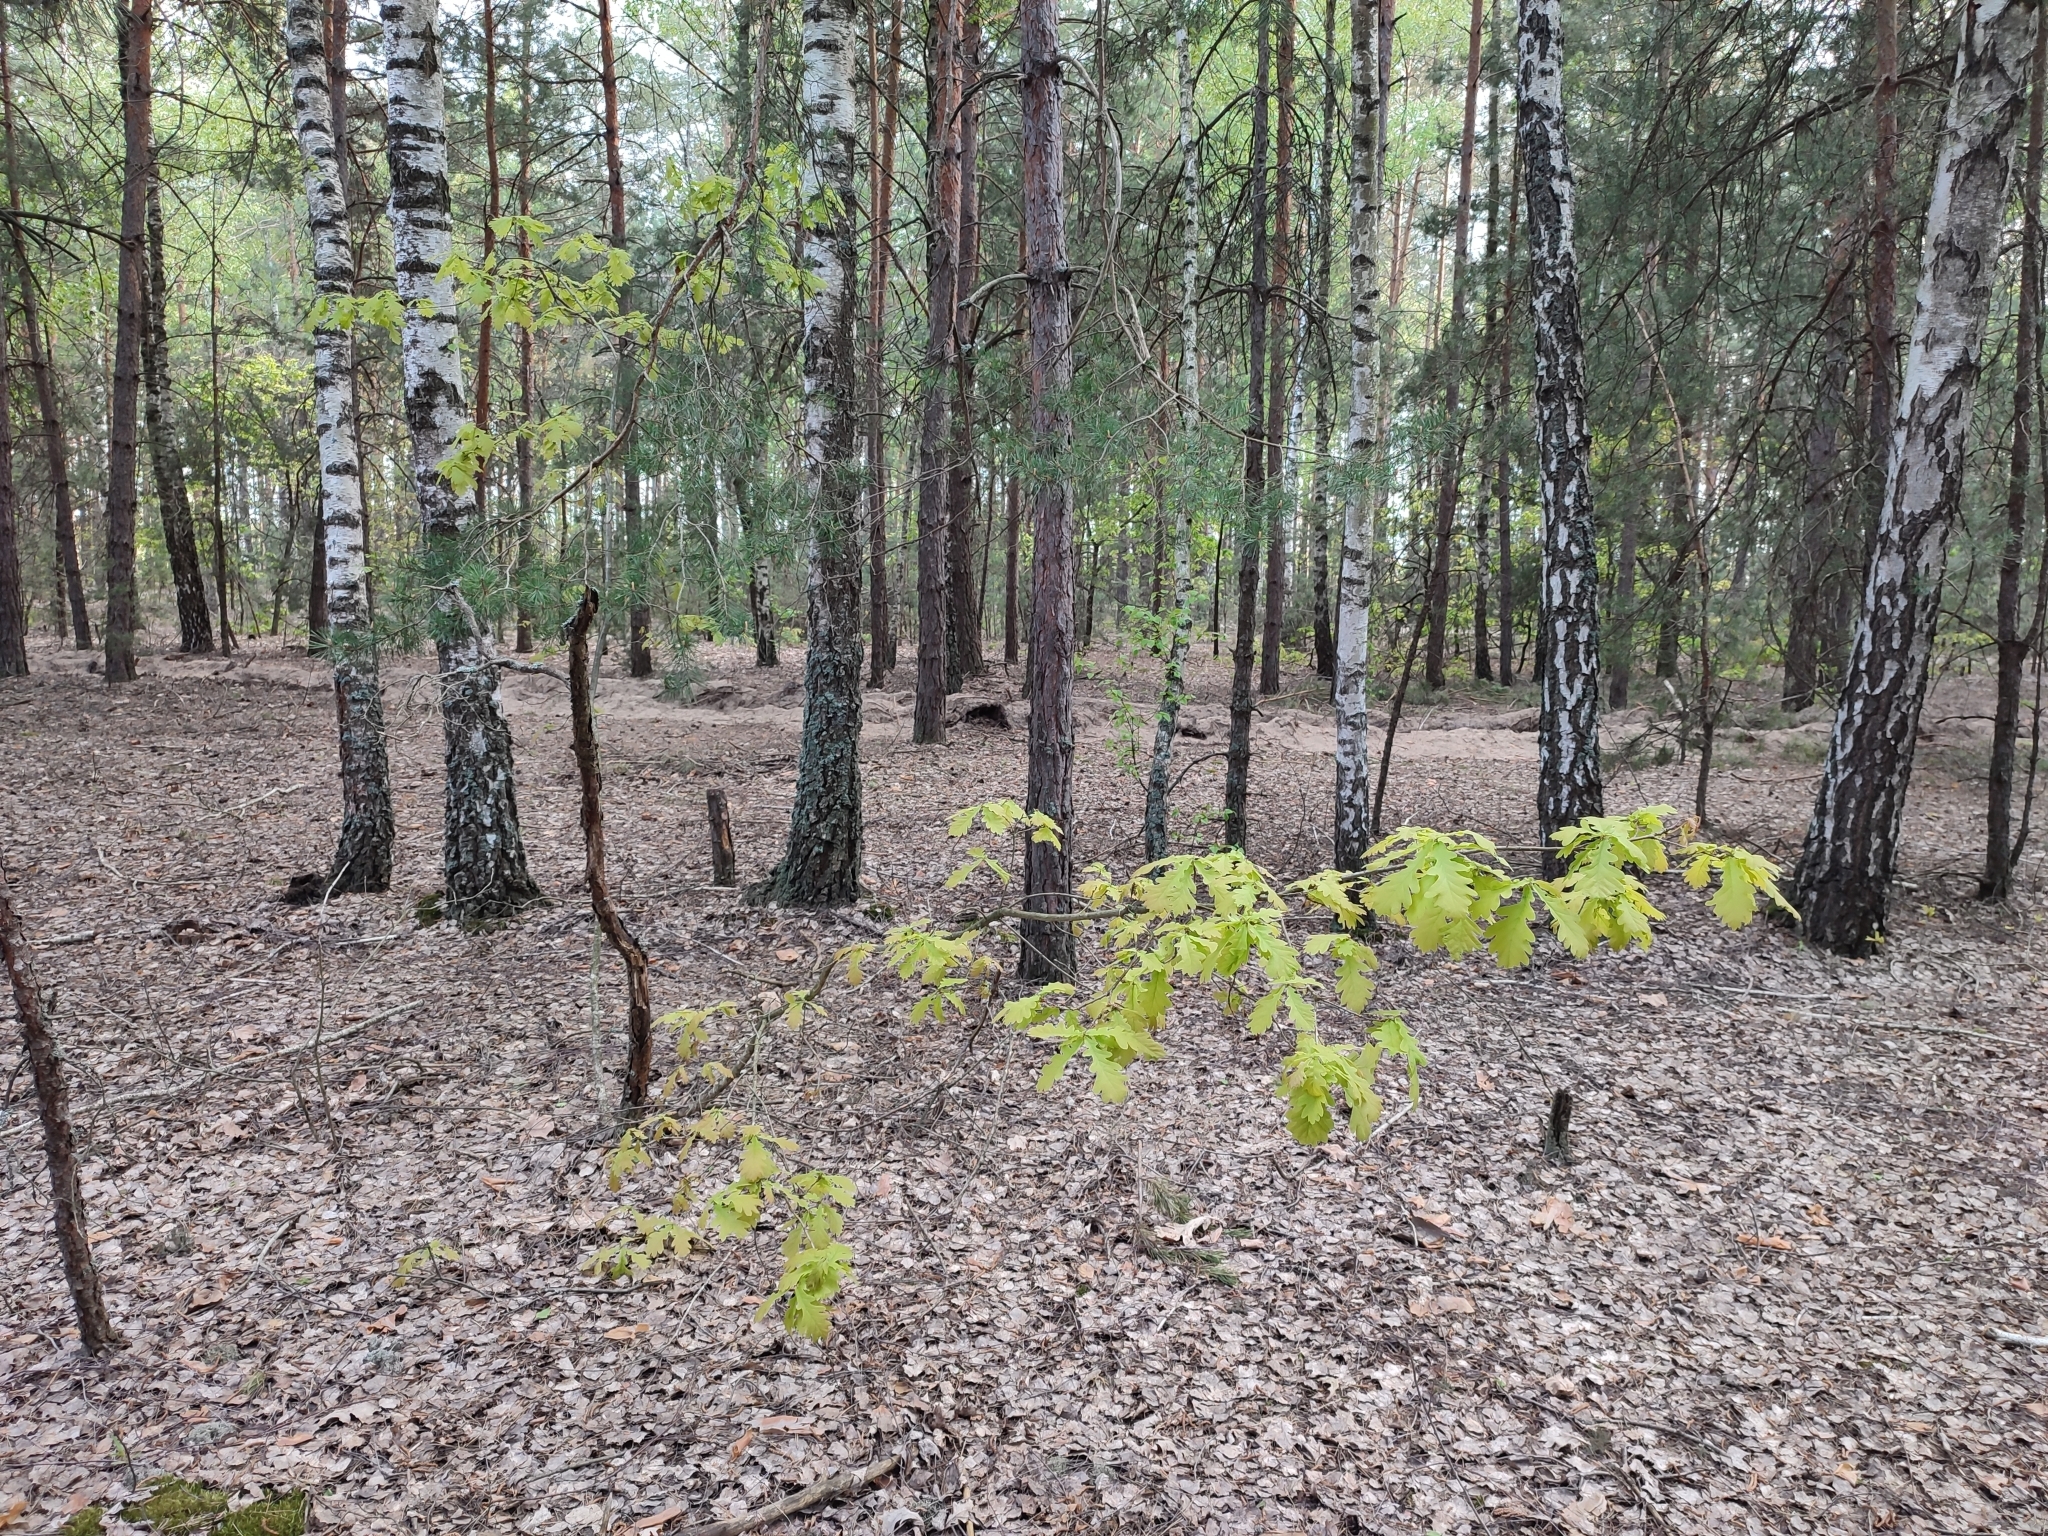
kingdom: Plantae
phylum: Tracheophyta
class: Magnoliopsida
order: Fagales
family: Fagaceae
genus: Quercus
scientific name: Quercus robur
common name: Pedunculate oak
